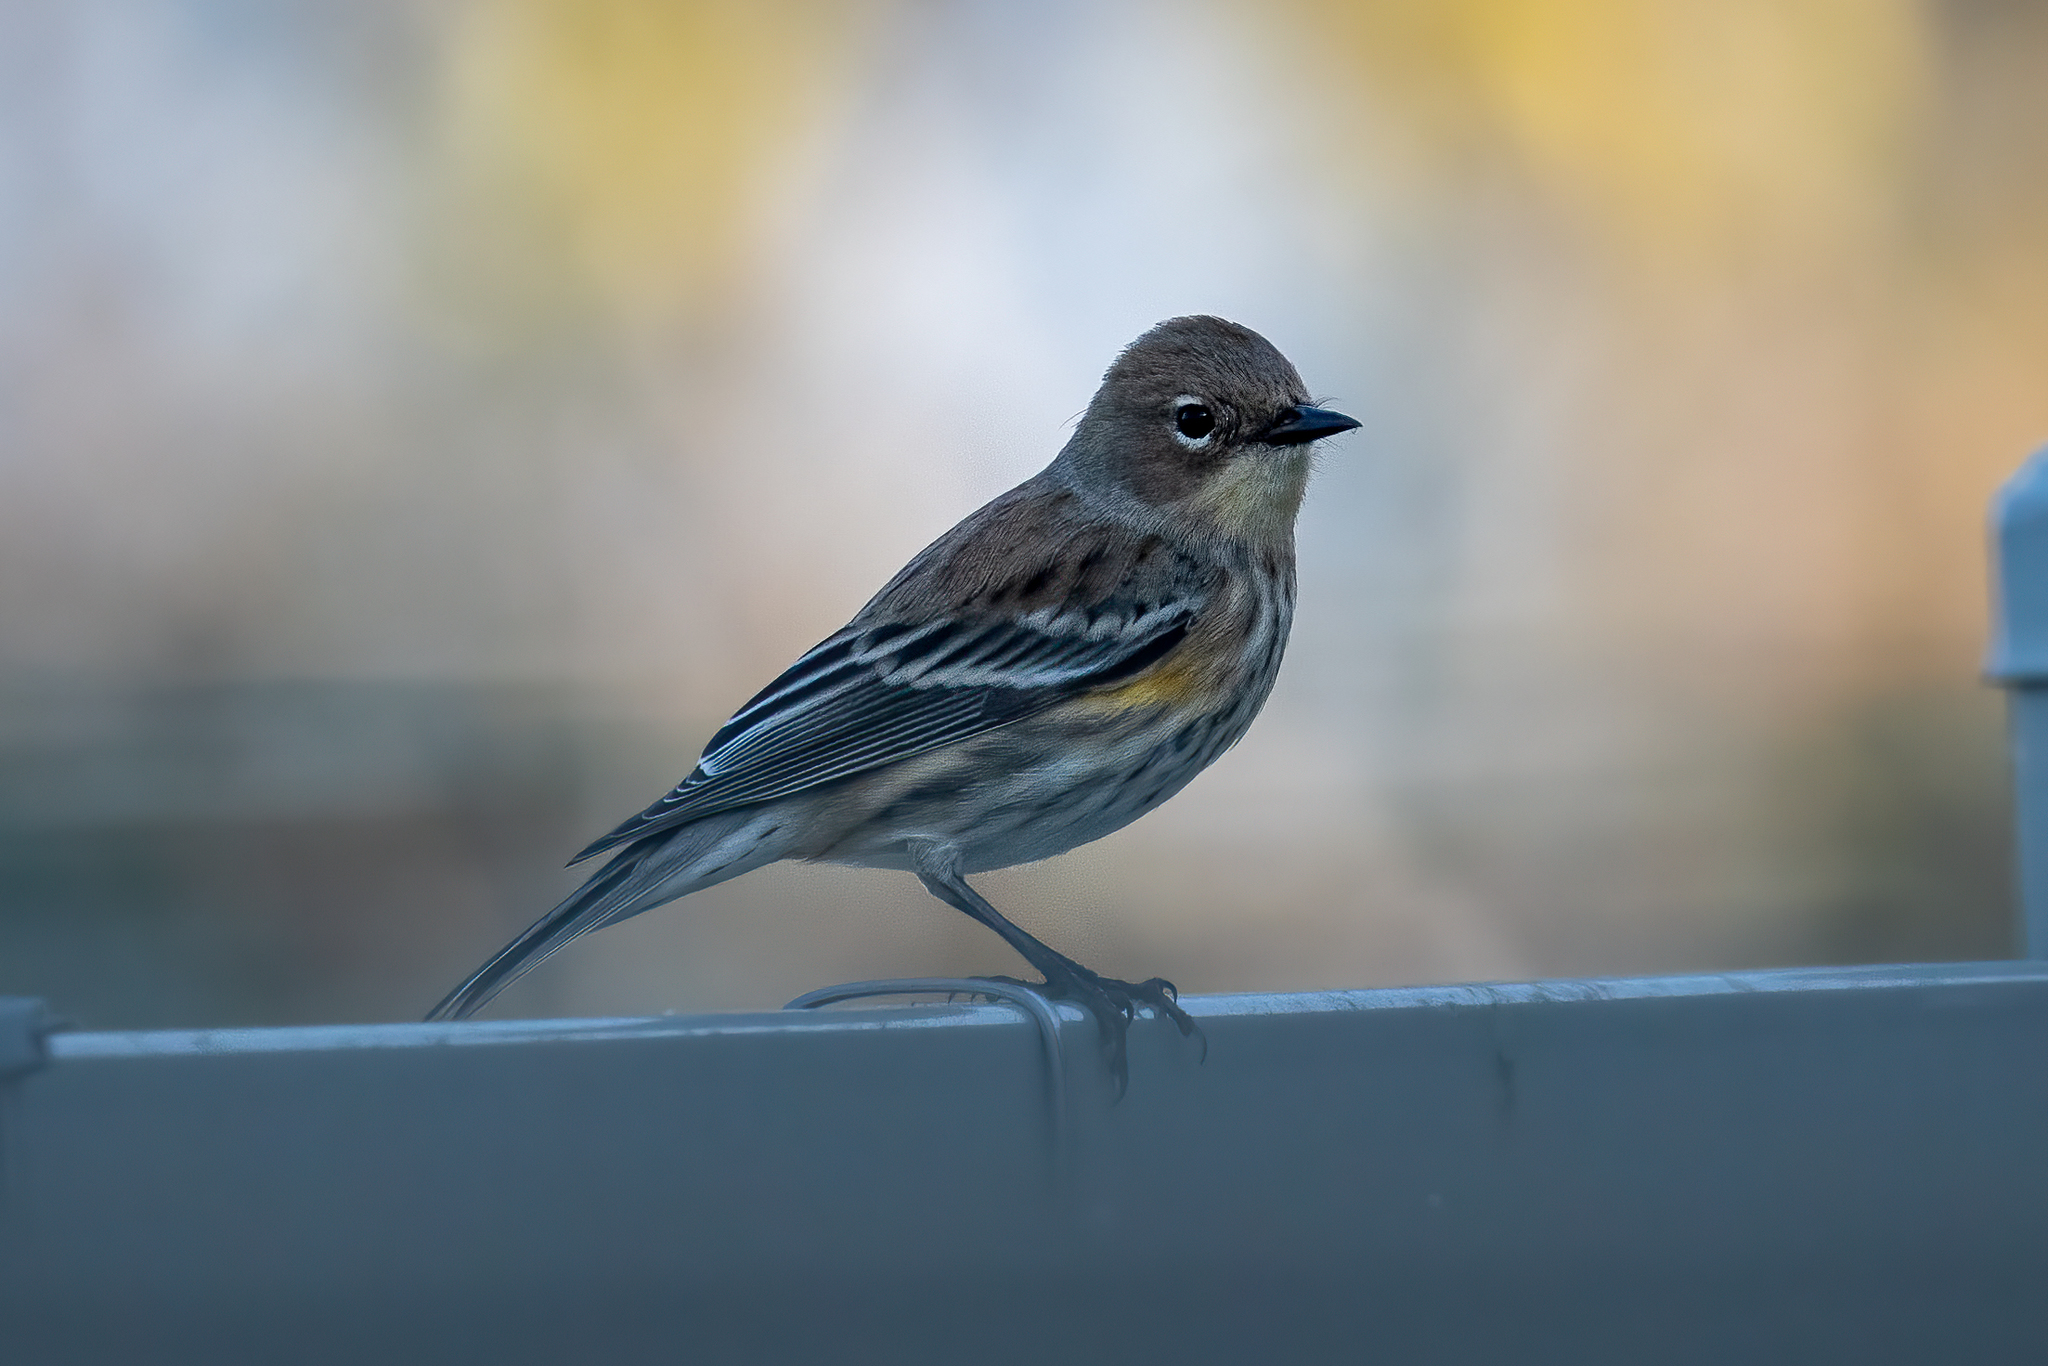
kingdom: Animalia
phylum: Chordata
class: Aves
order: Passeriformes
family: Parulidae
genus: Setophaga
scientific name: Setophaga coronata
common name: Myrtle warbler
